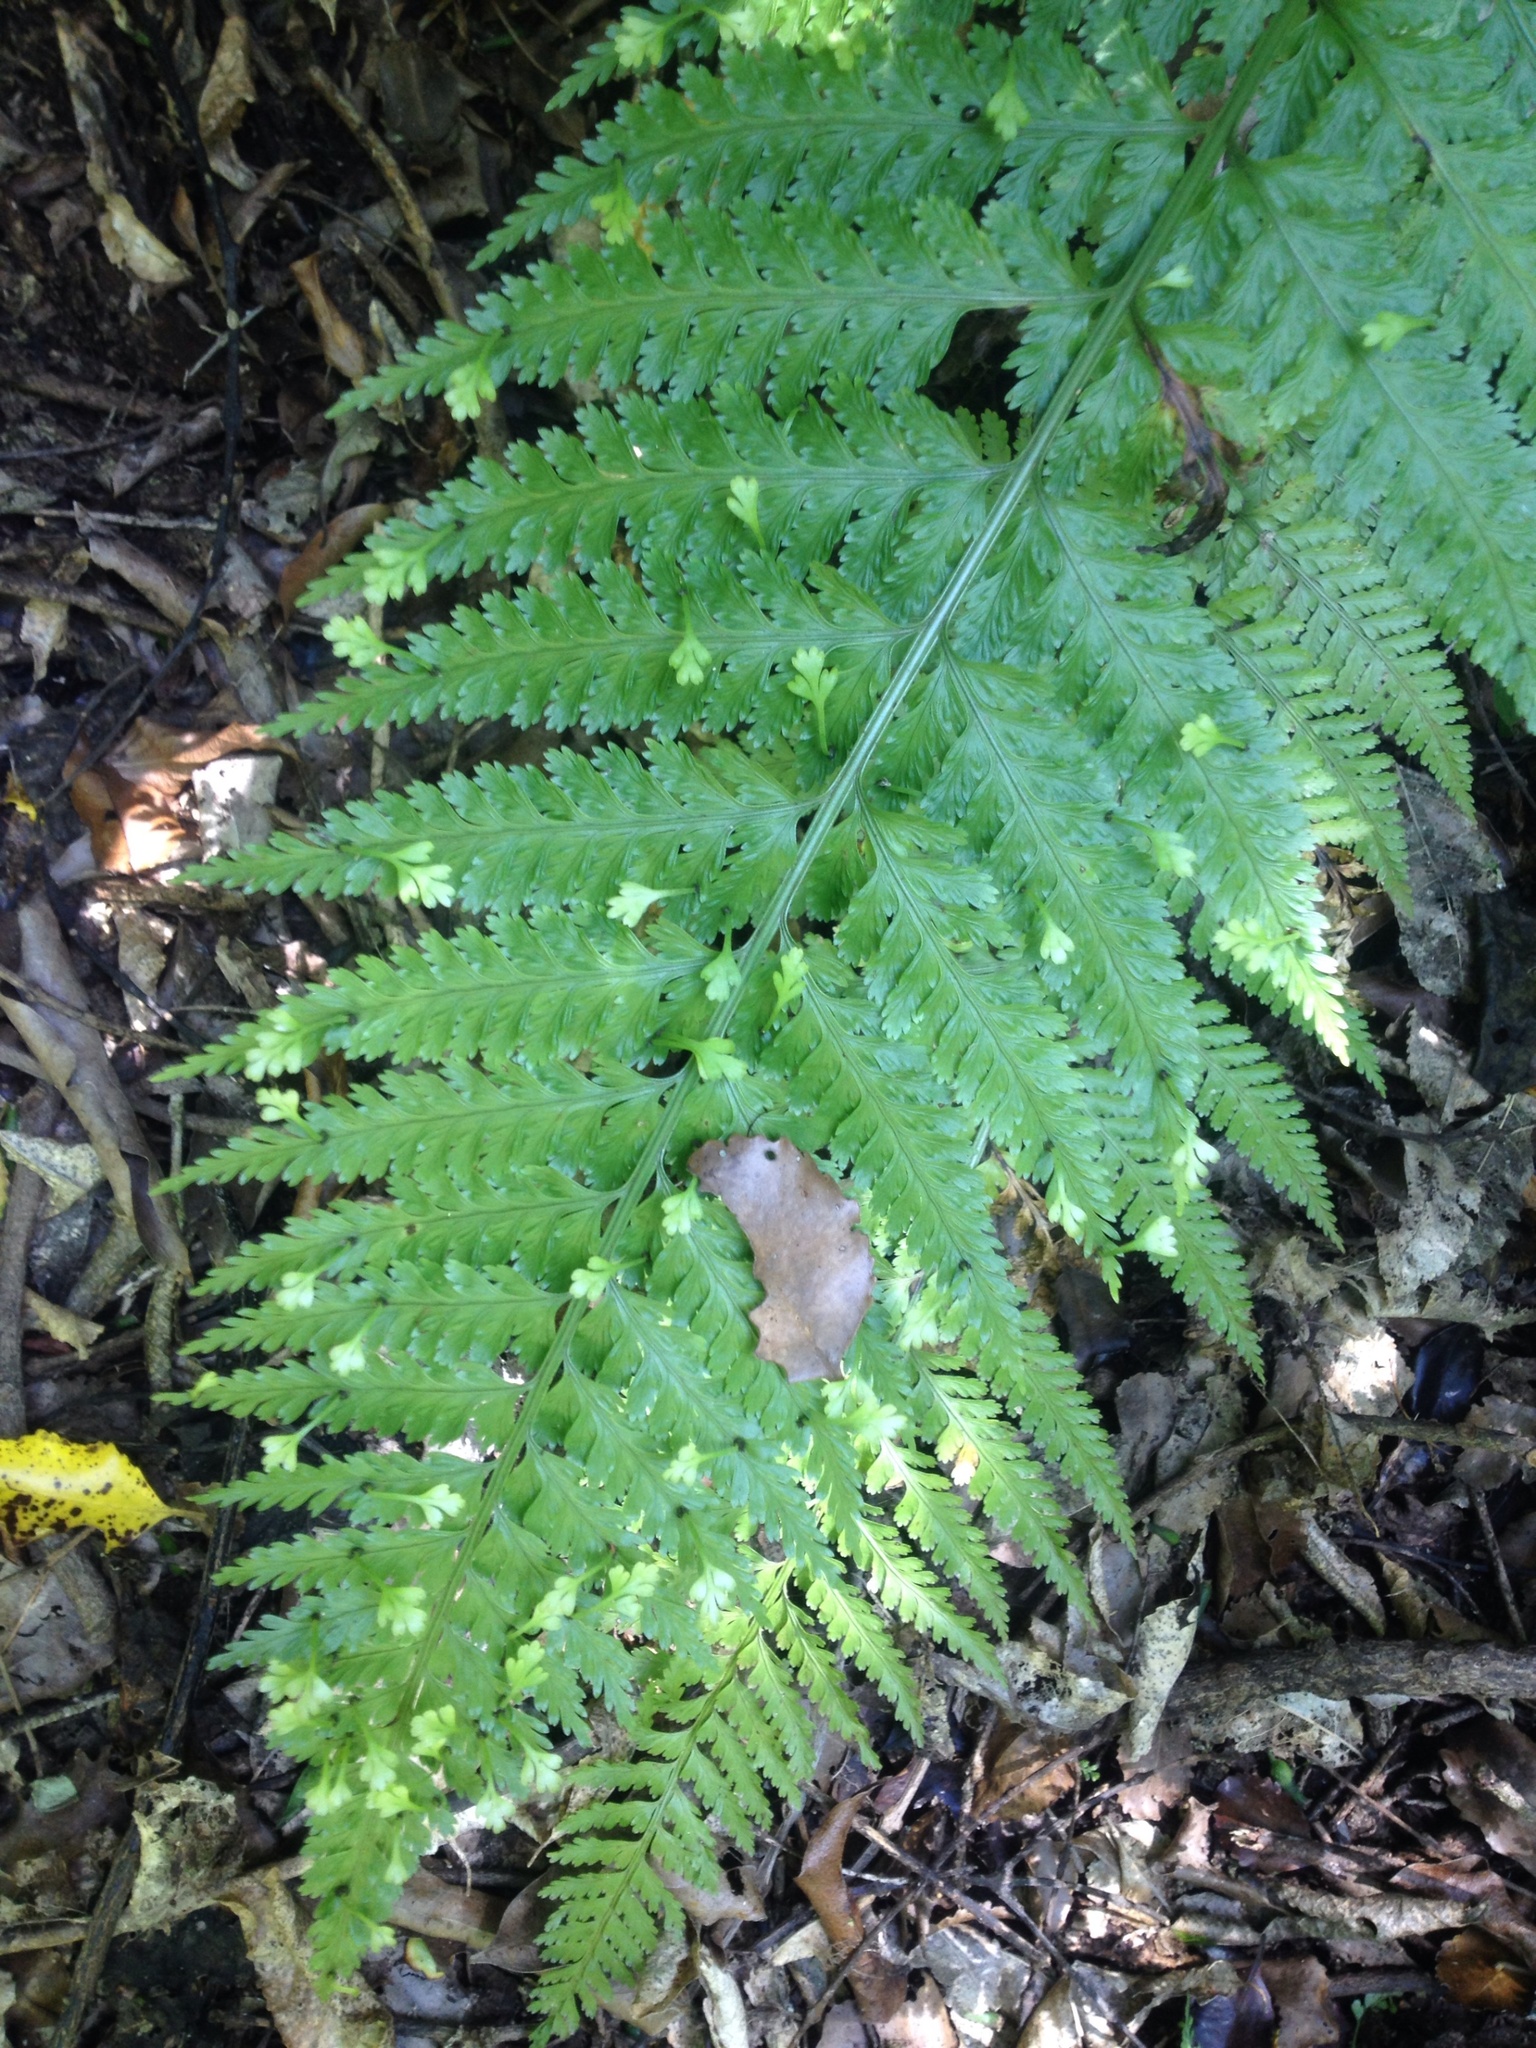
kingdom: Plantae
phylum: Tracheophyta
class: Polypodiopsida
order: Polypodiales
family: Aspleniaceae
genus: Asplenium
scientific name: Asplenium bulbiferum
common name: Mother fern
